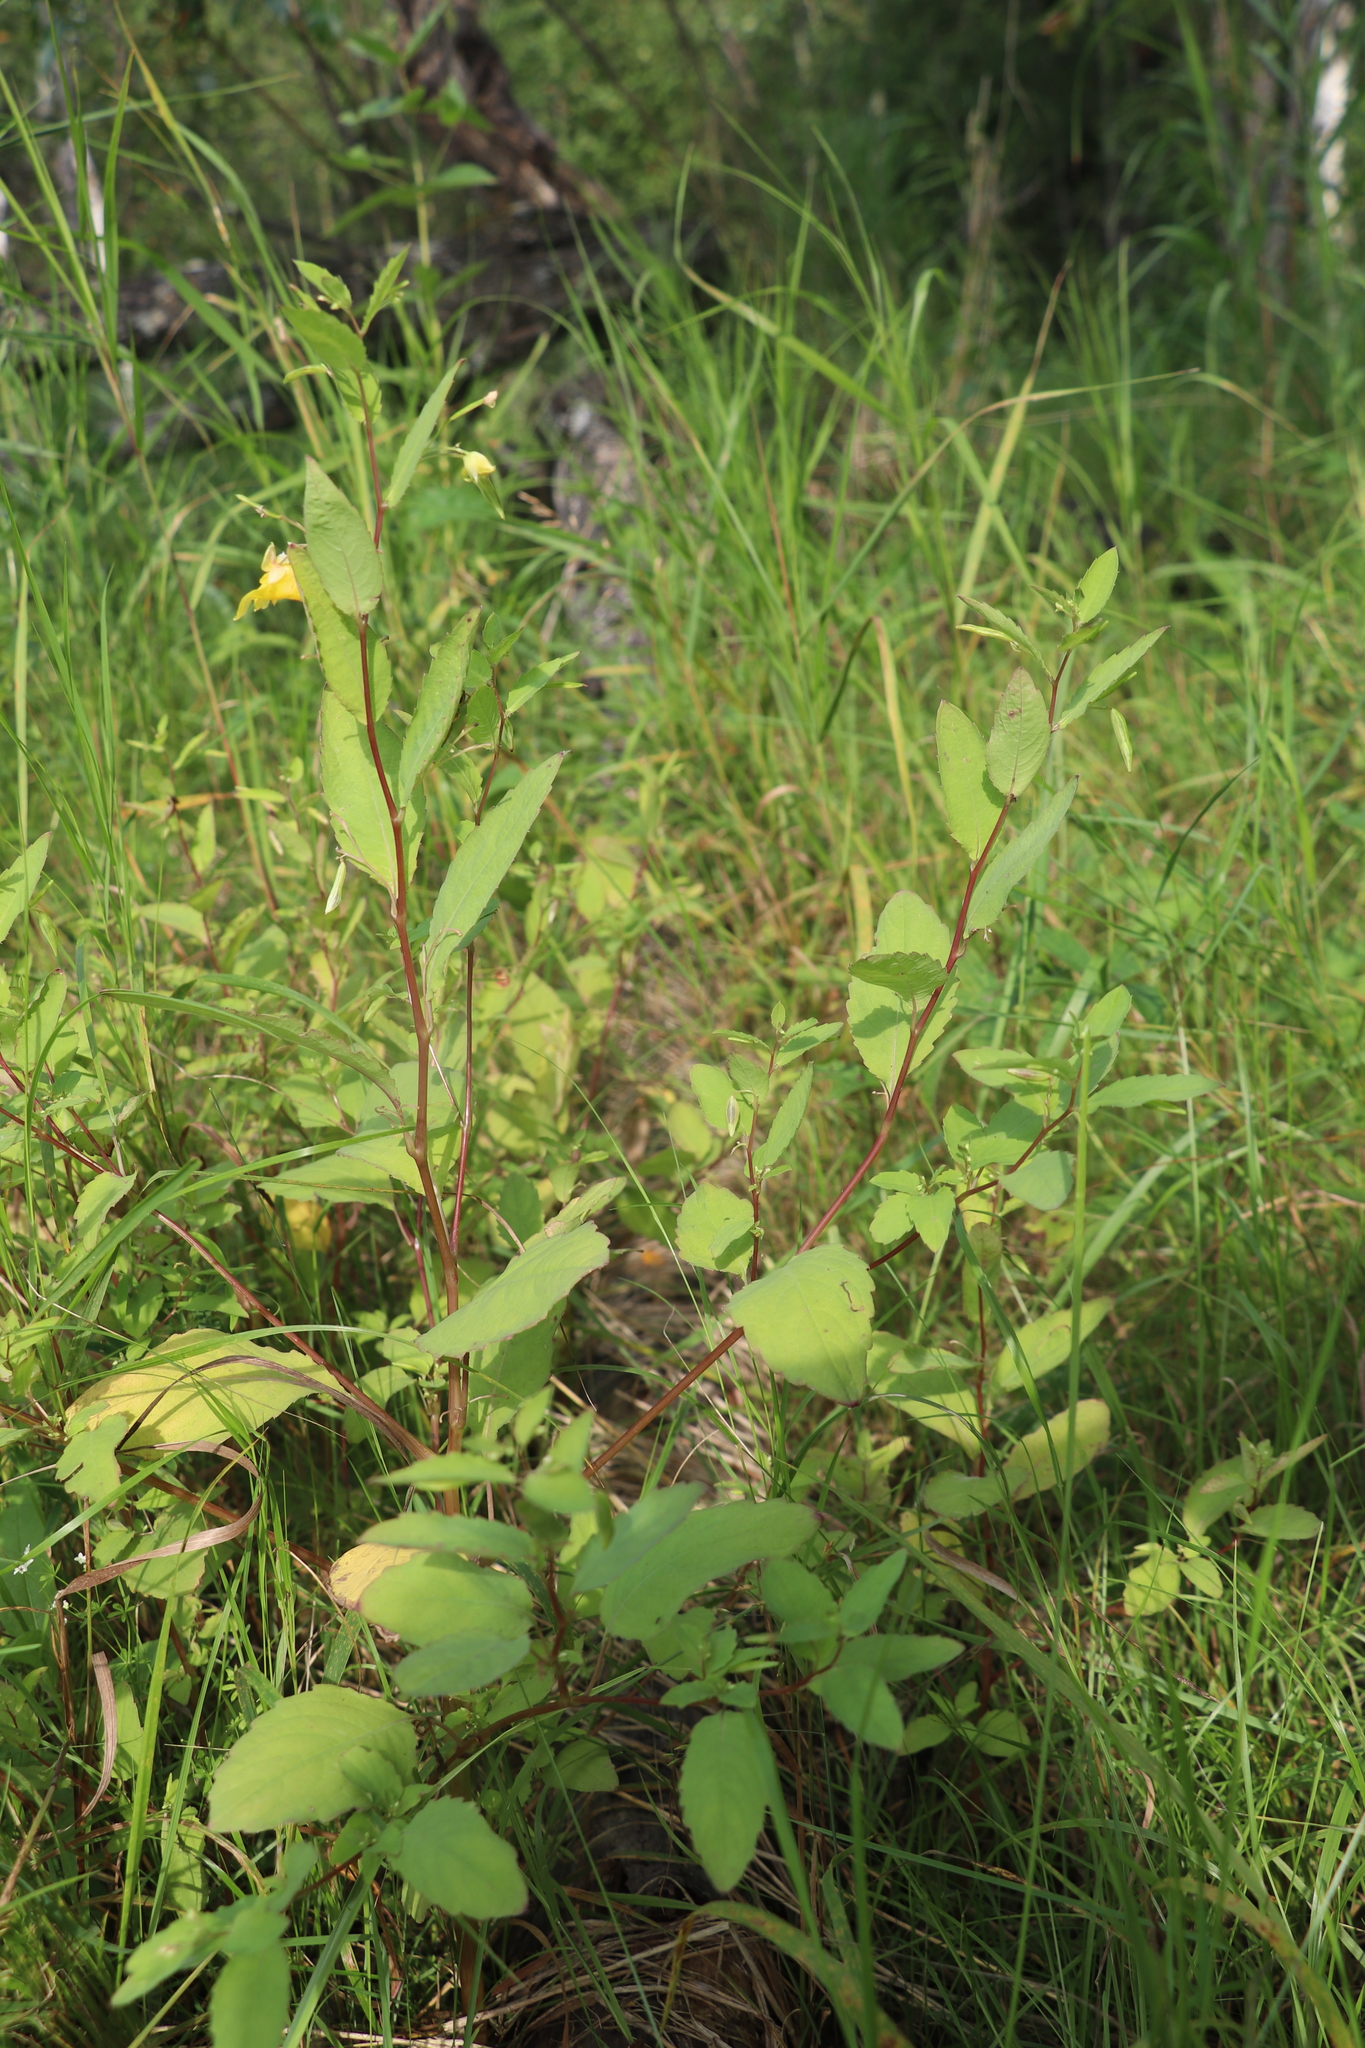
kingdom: Plantae
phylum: Tracheophyta
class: Magnoliopsida
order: Ericales
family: Balsaminaceae
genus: Impatiens
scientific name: Impatiens noli-tangere
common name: Touch-me-not balsam
